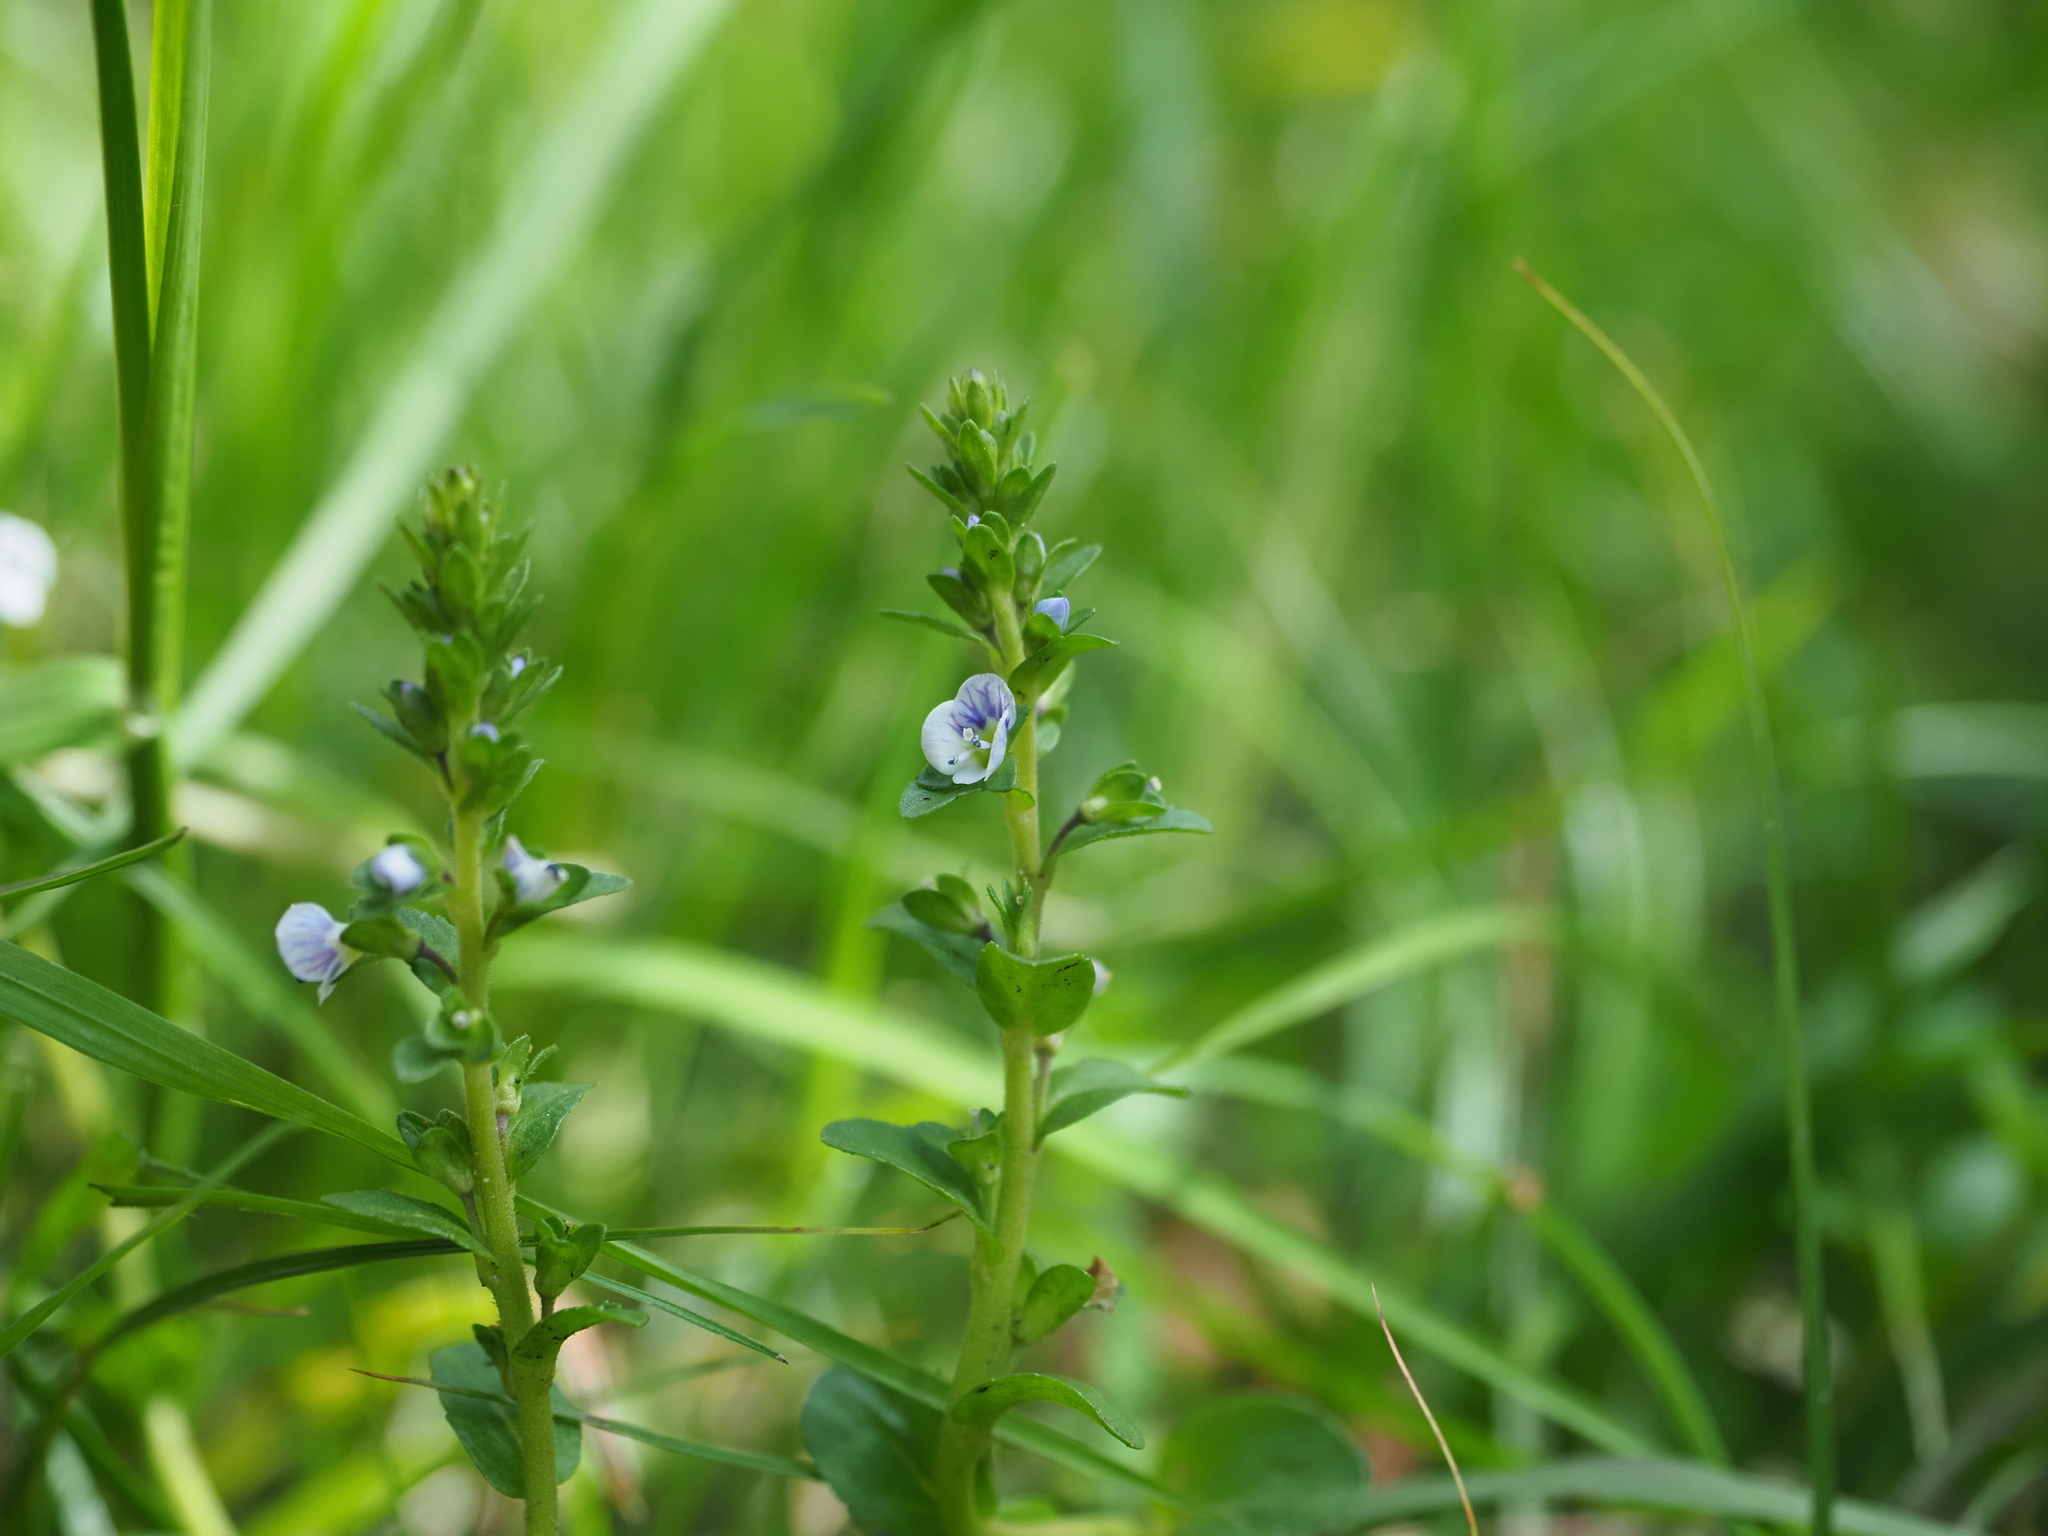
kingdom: Plantae
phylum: Tracheophyta
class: Magnoliopsida
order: Lamiales
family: Plantaginaceae
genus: Veronica
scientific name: Veronica serpyllifolia
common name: Thyme-leaved speedwell
